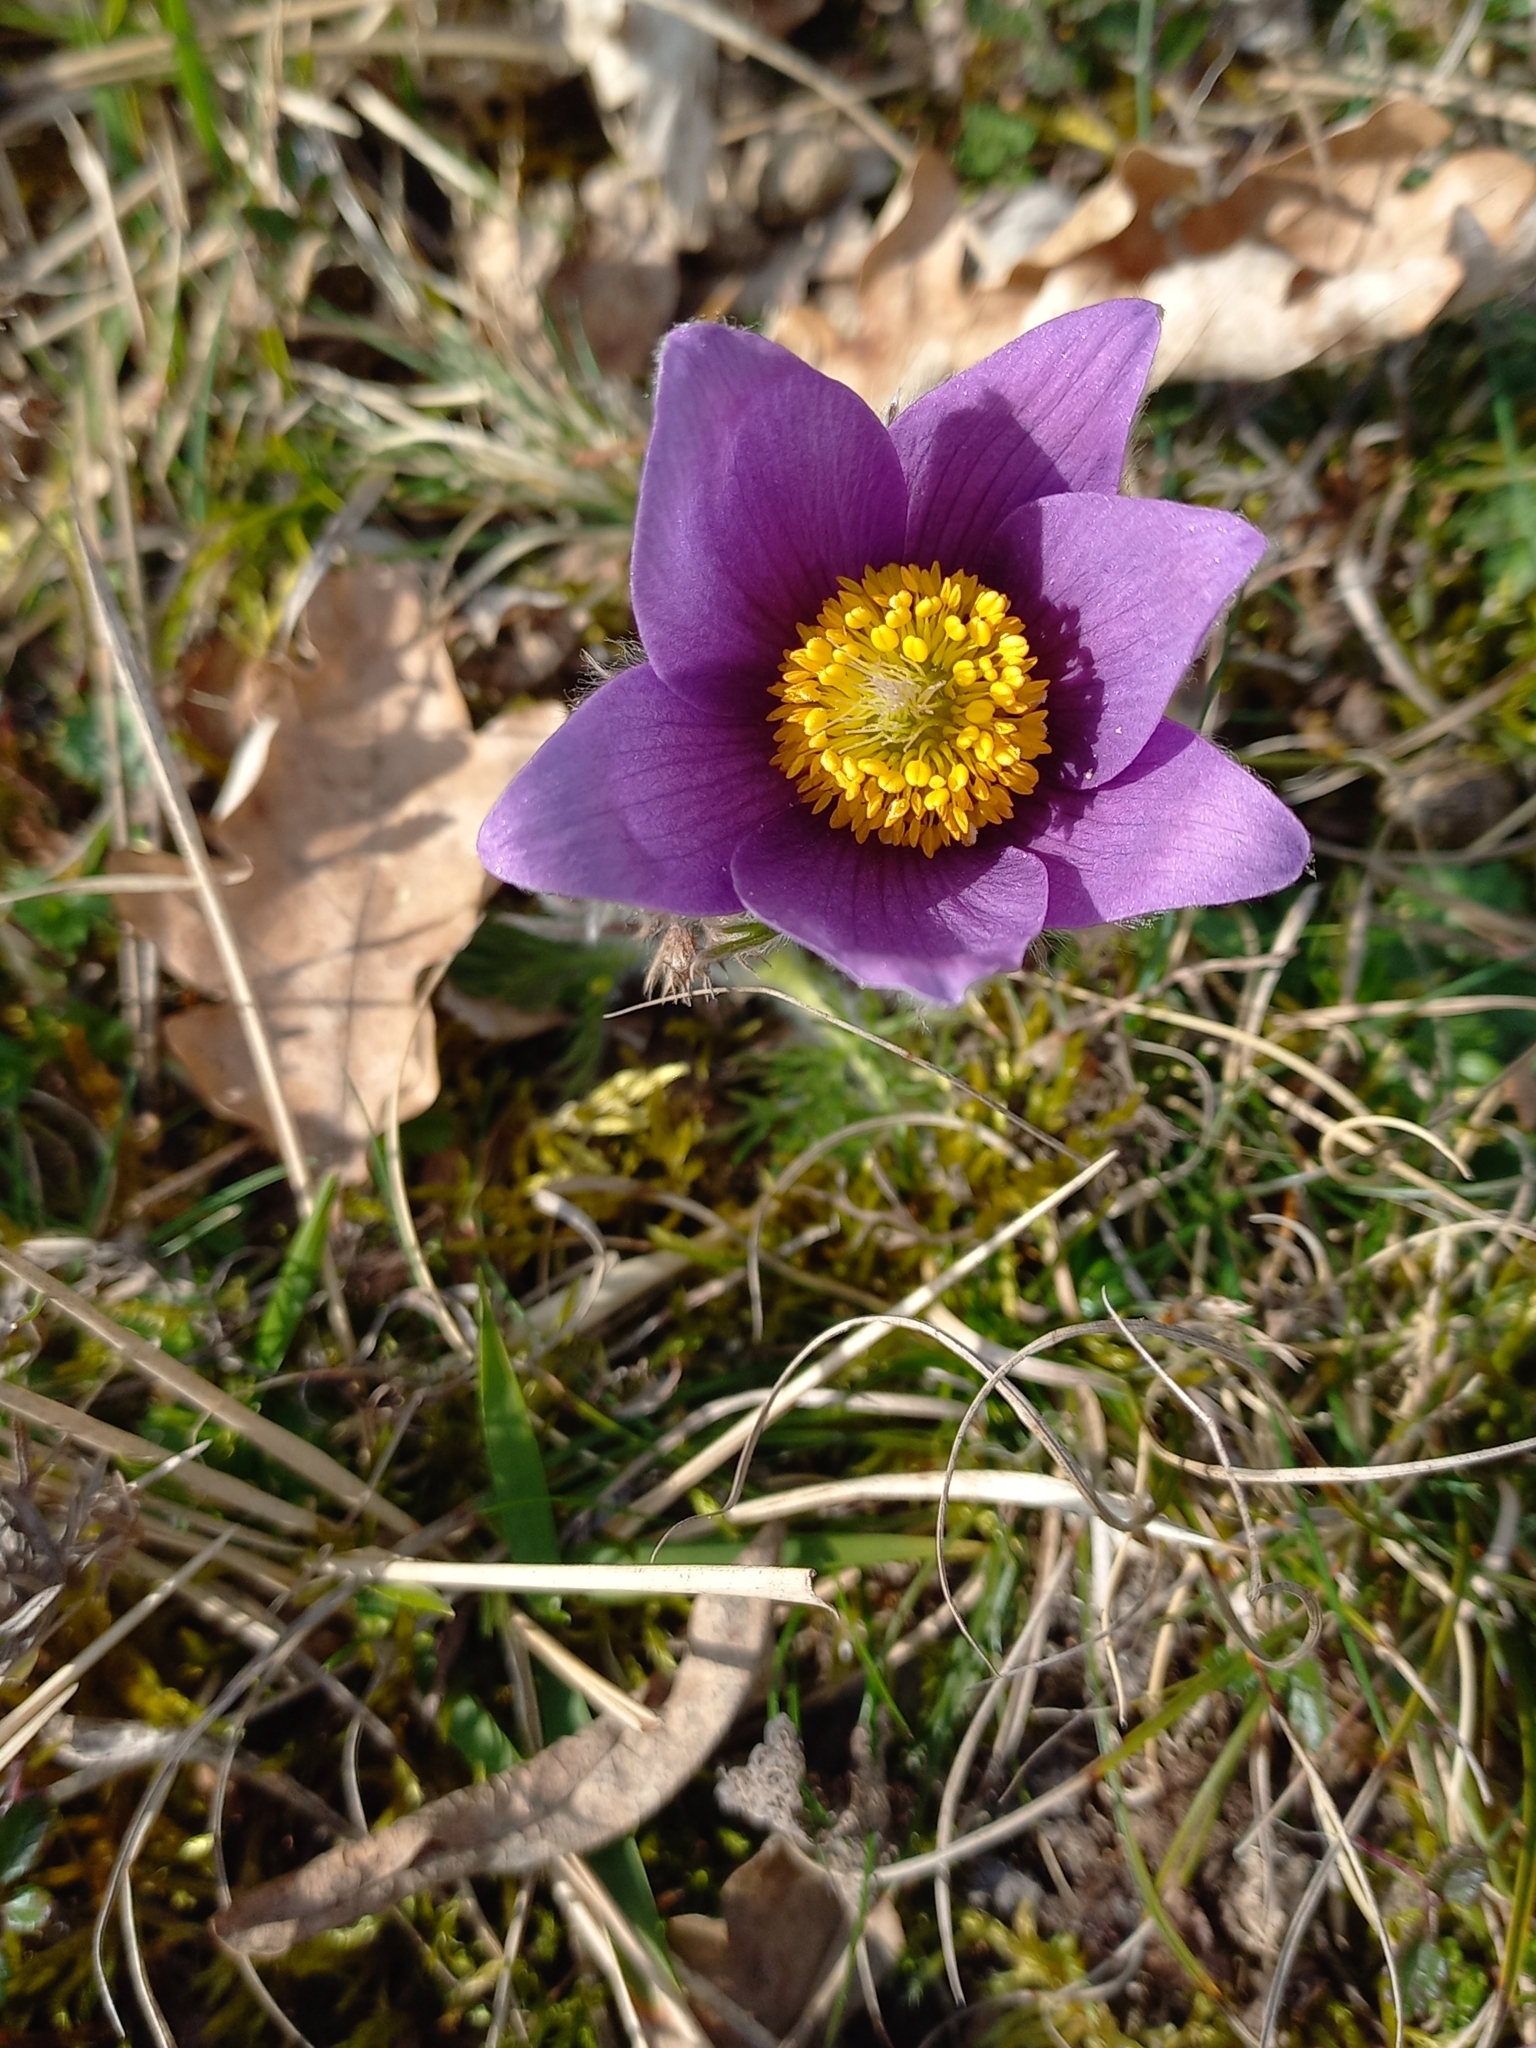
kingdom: Plantae
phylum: Tracheophyta
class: Magnoliopsida
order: Ranunculales
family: Ranunculaceae
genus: Pulsatilla
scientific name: Pulsatilla vulgaris
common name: Pasqueflower
